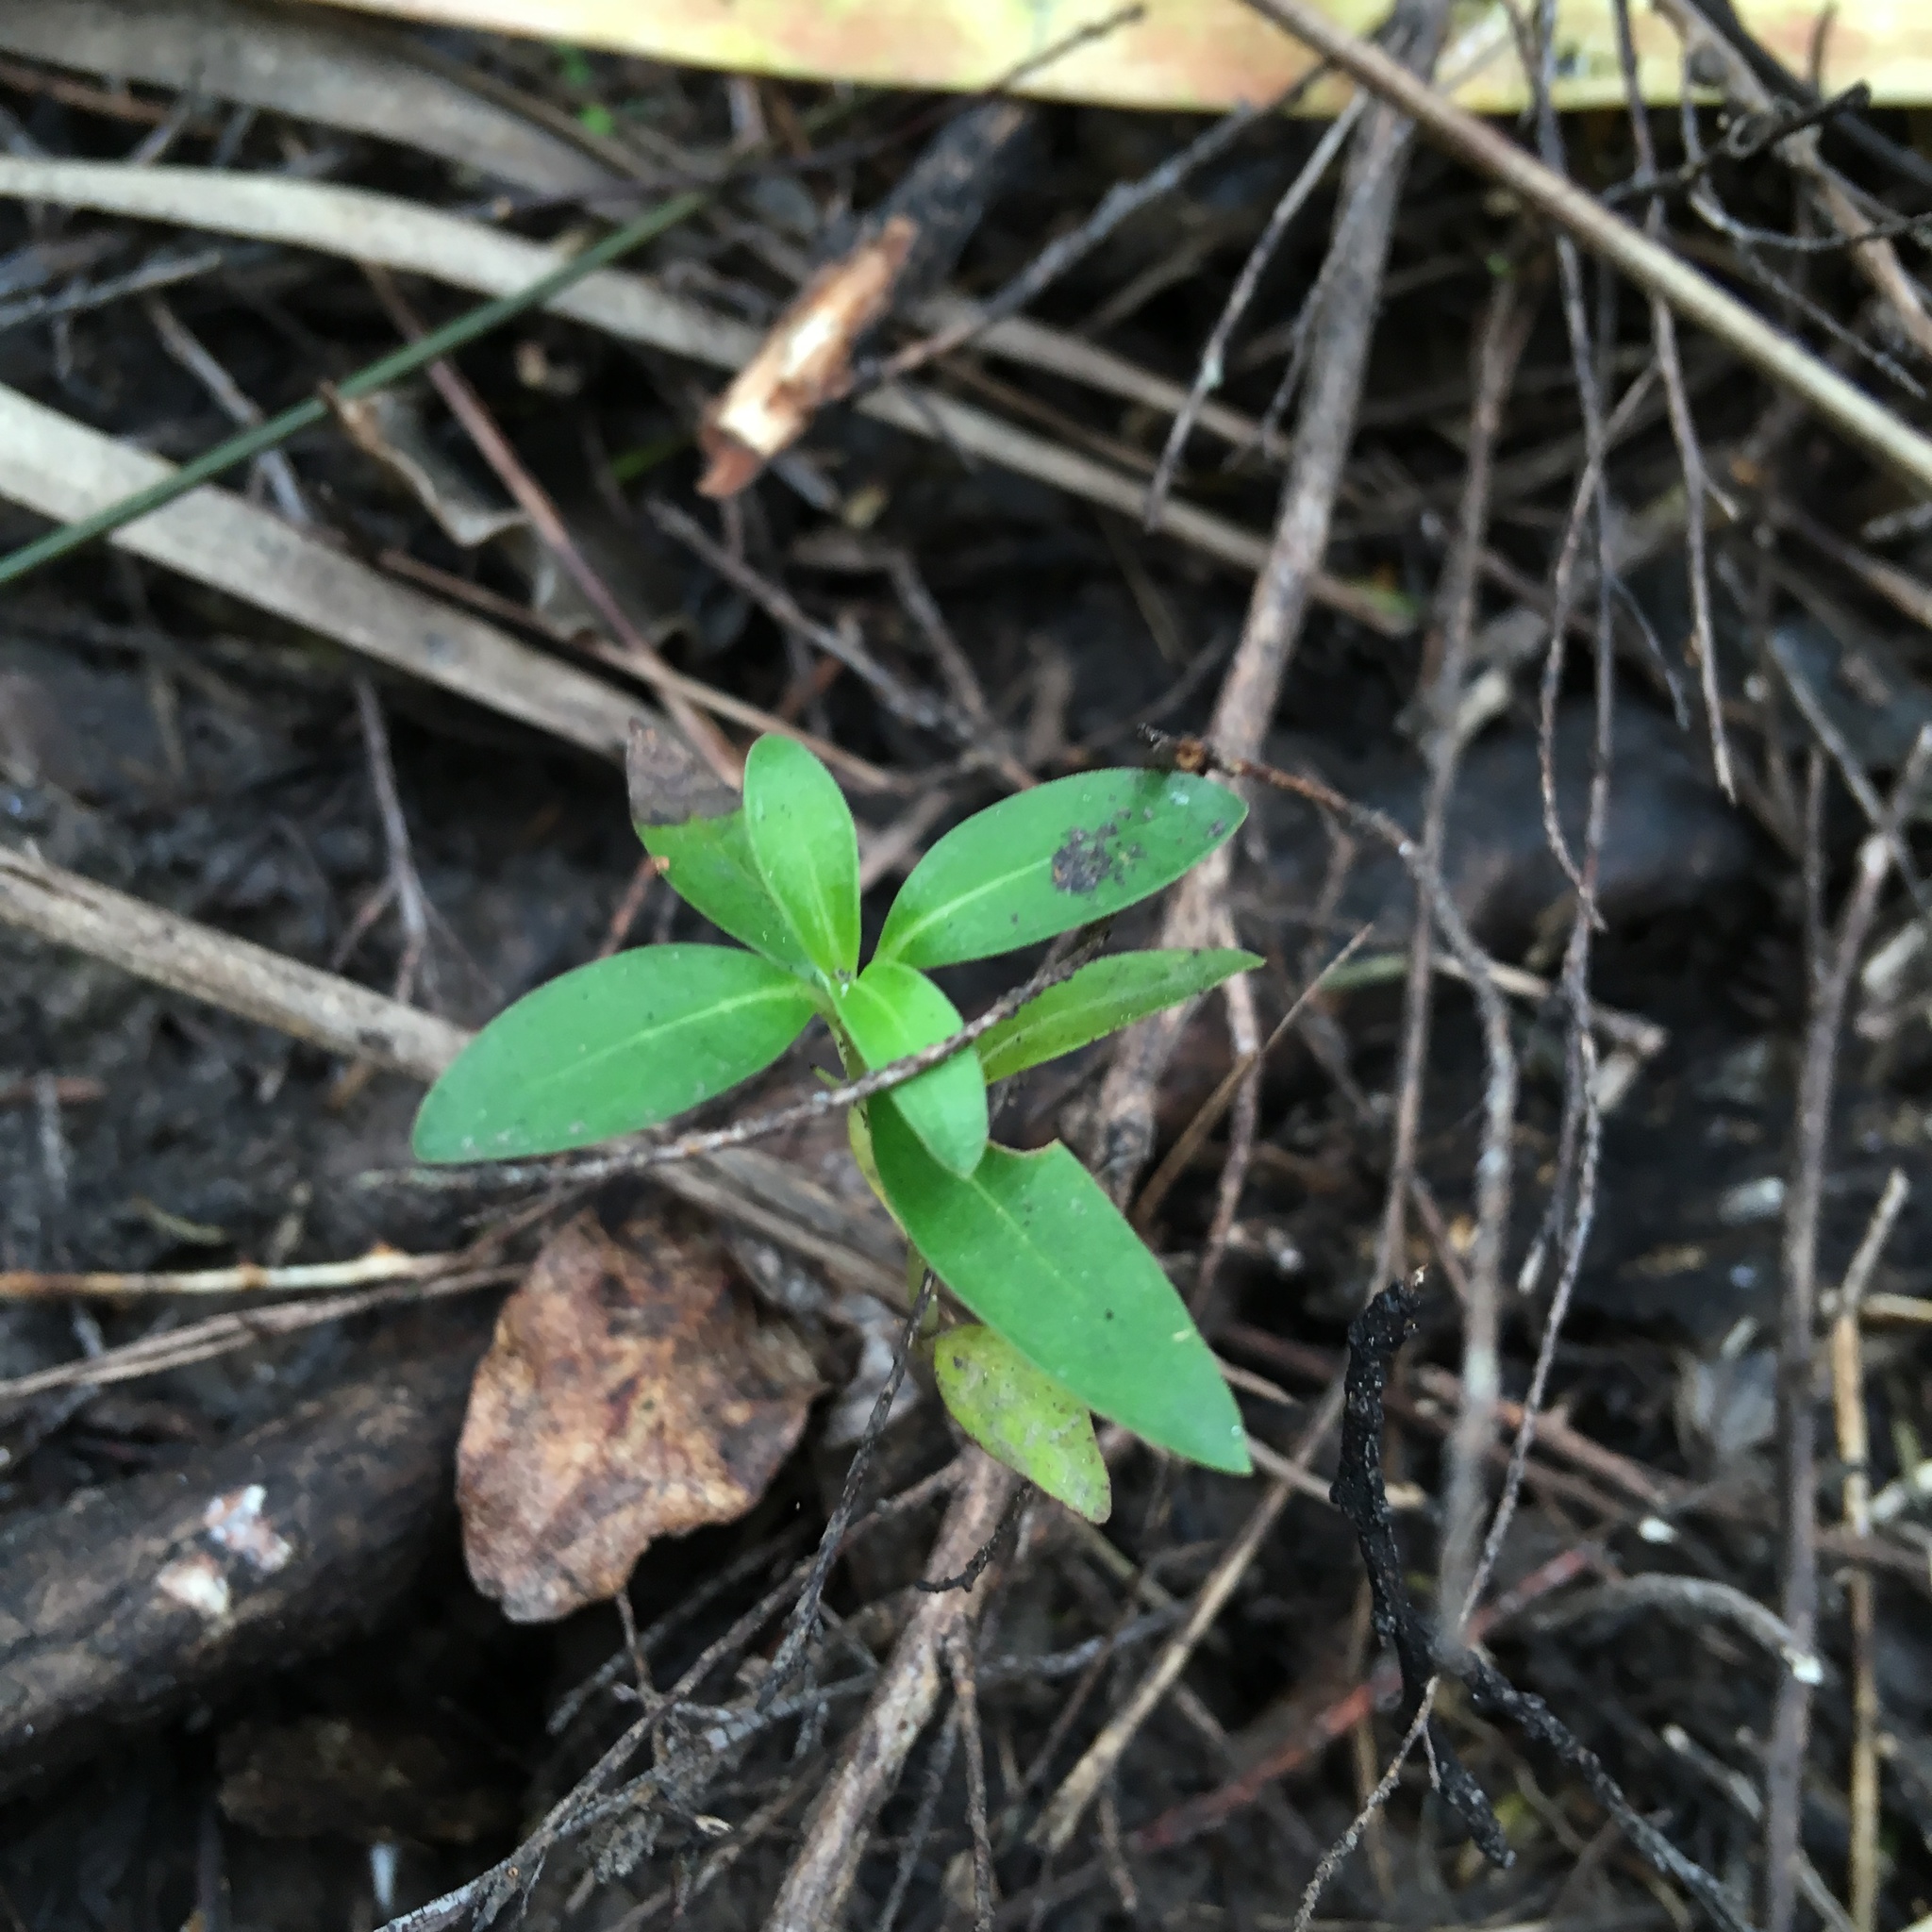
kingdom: Plantae
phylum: Tracheophyta
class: Magnoliopsida
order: Gentianales
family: Rubiaceae
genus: Coprosma
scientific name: Coprosma robusta
